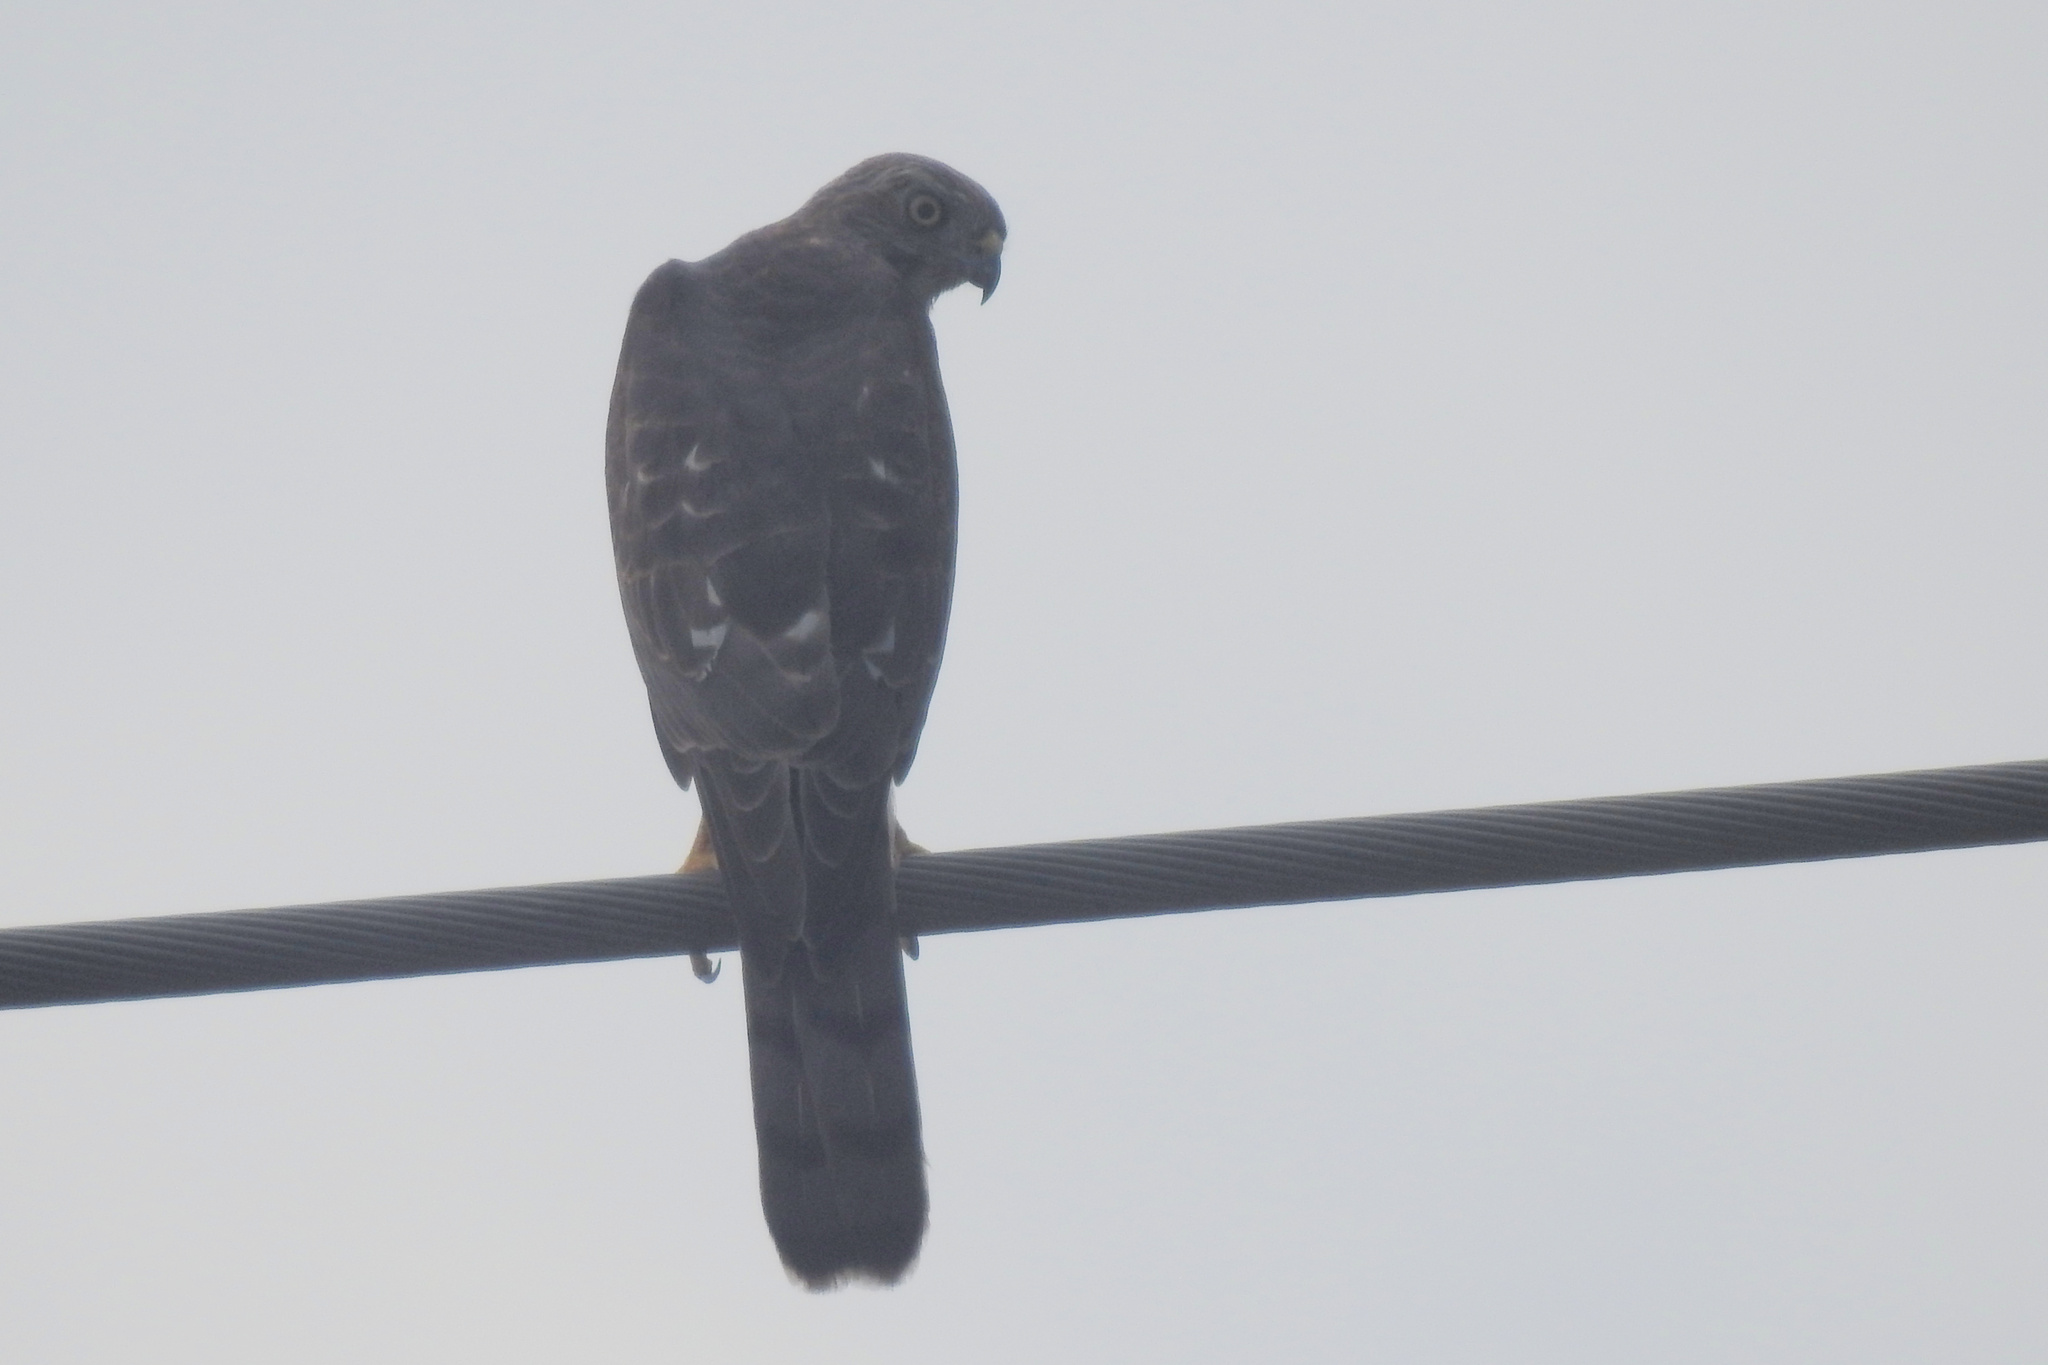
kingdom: Animalia
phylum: Chordata
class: Aves
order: Accipitriformes
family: Accipitridae
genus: Accipiter
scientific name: Accipiter badius
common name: Shikra
